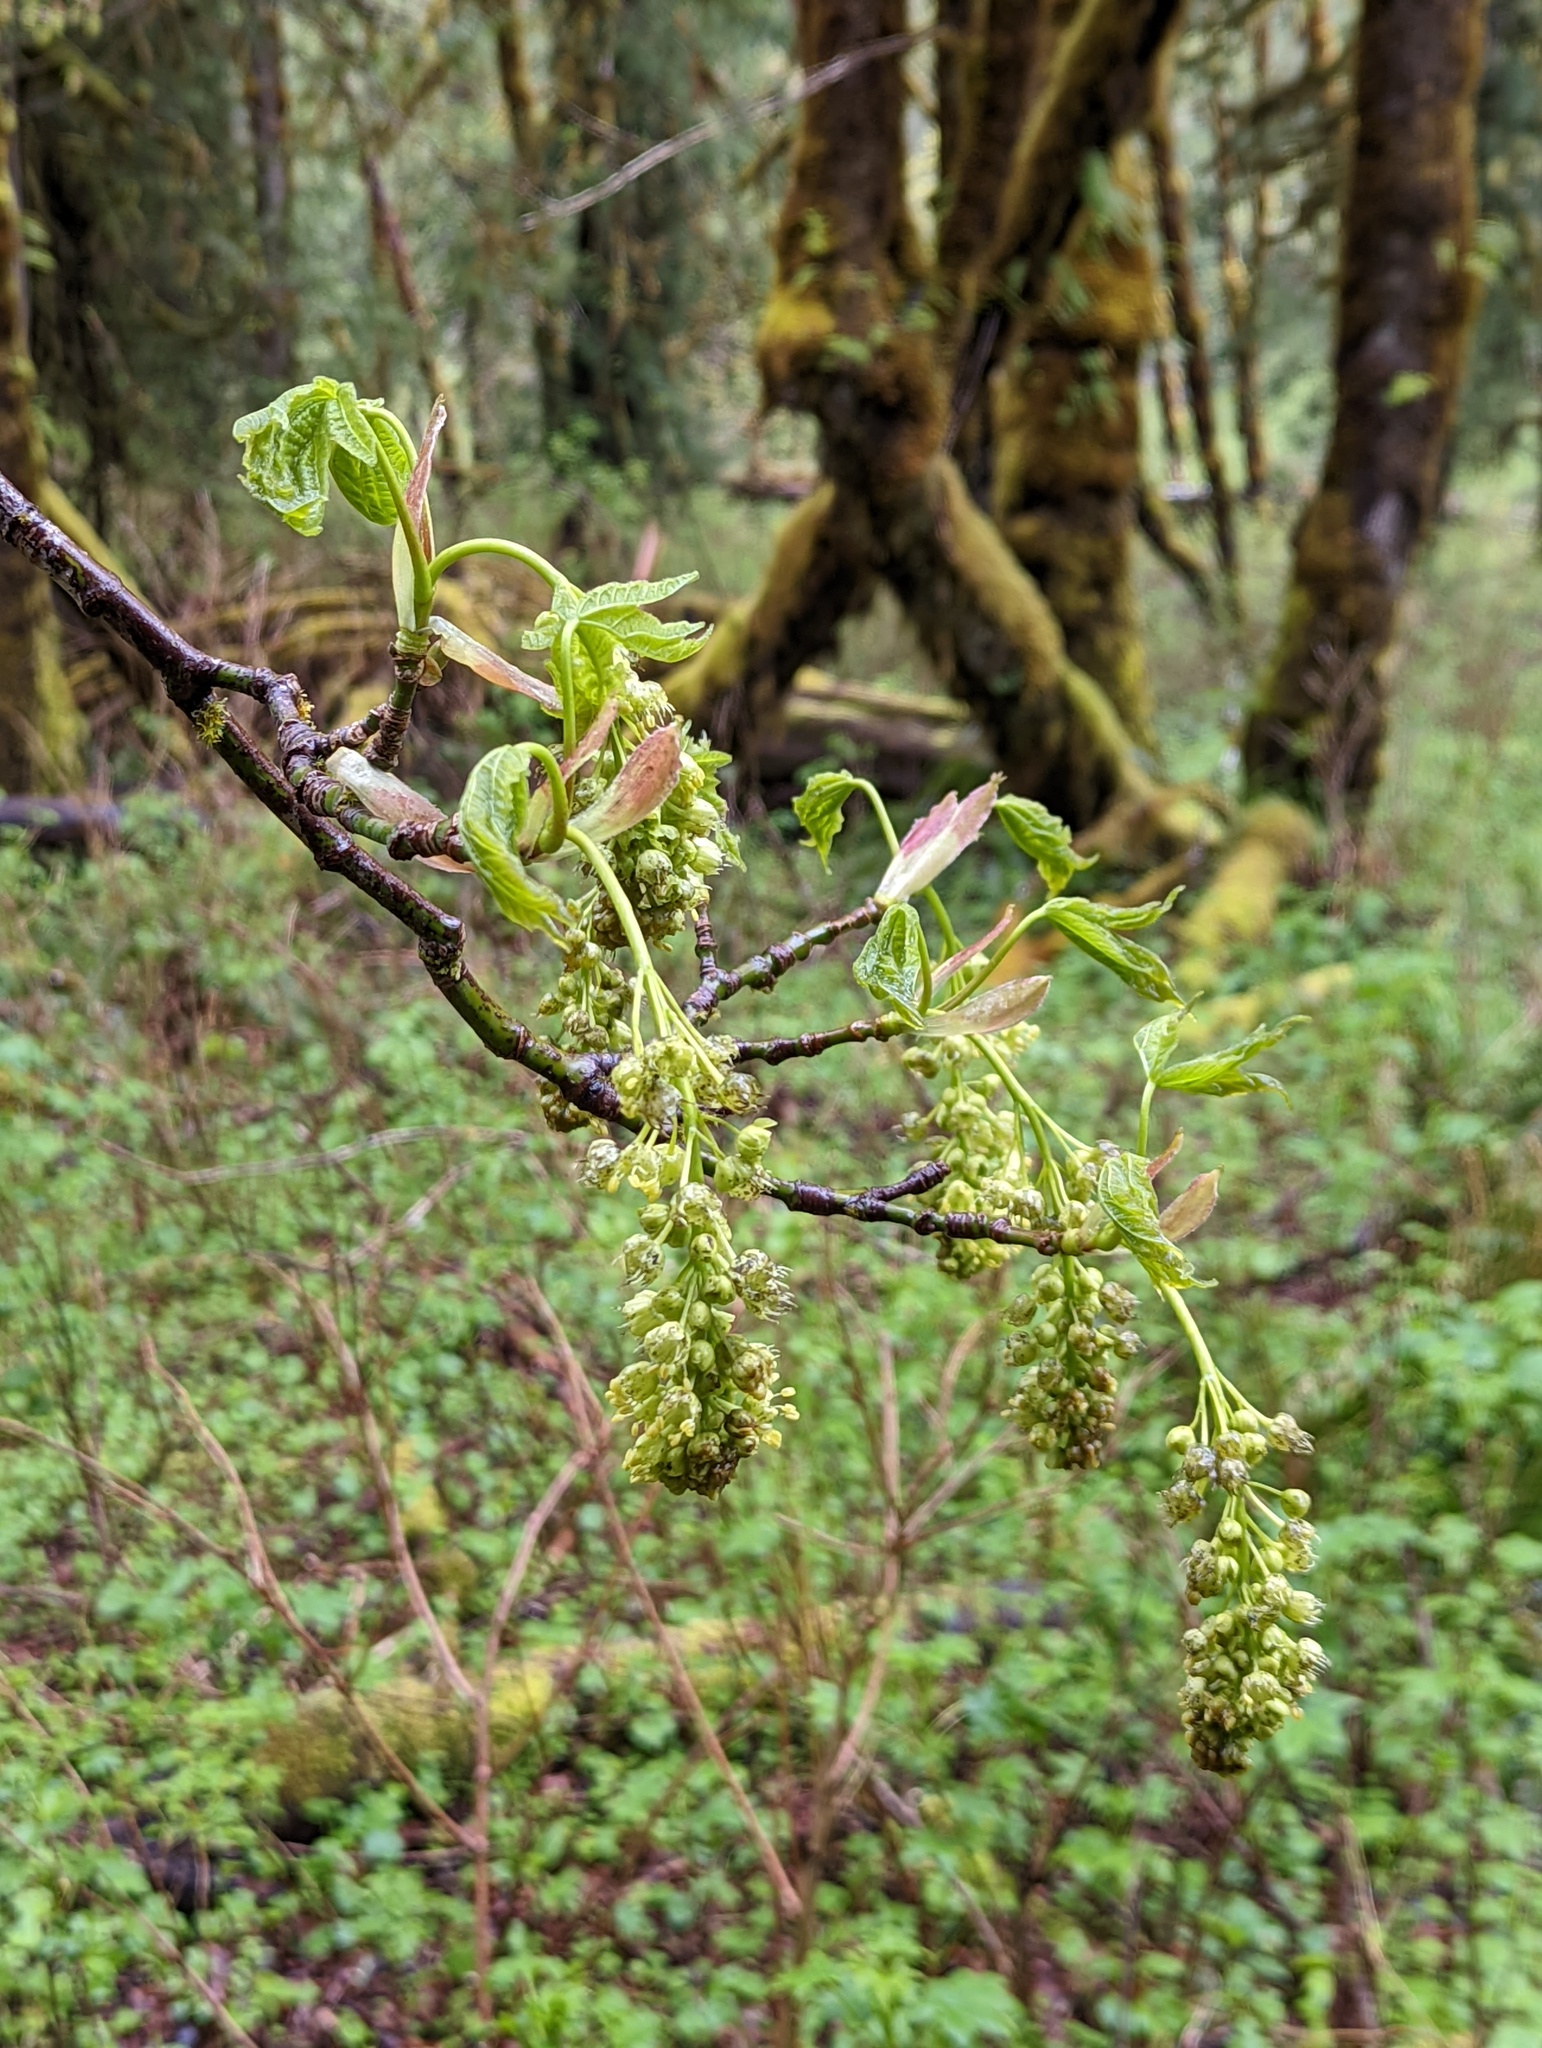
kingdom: Plantae
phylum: Tracheophyta
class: Magnoliopsida
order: Sapindales
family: Sapindaceae
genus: Acer
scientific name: Acer macrophyllum
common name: Oregon maple
